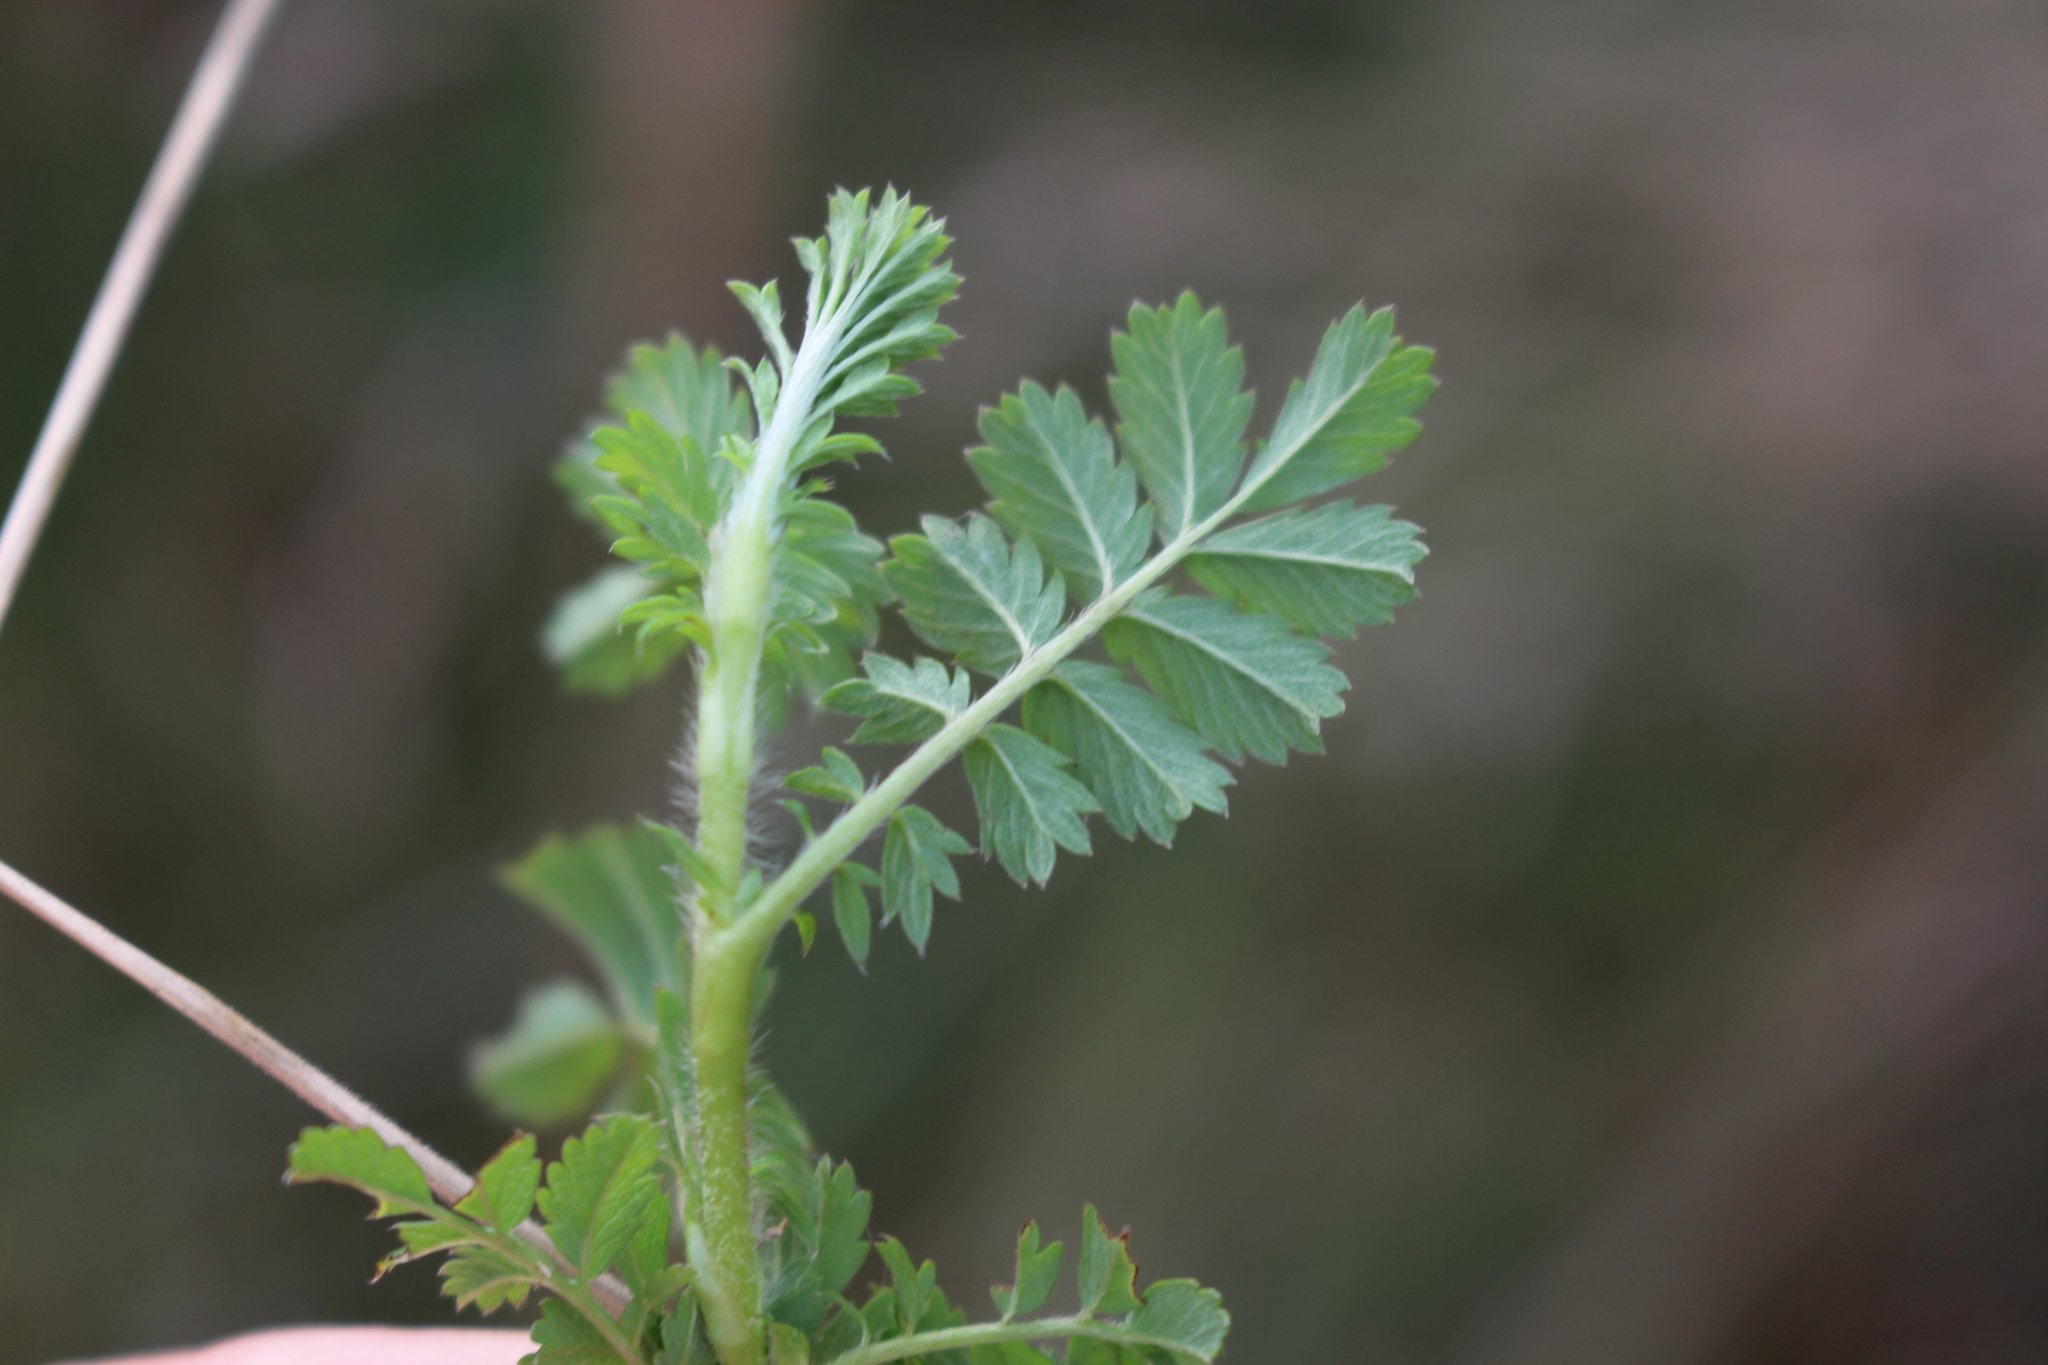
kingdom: Plantae
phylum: Tracheophyta
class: Magnoliopsida
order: Rosales
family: Rosaceae
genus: Acaena
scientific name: Acaena novae-zelandiae
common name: Pirri-pirri-bur
